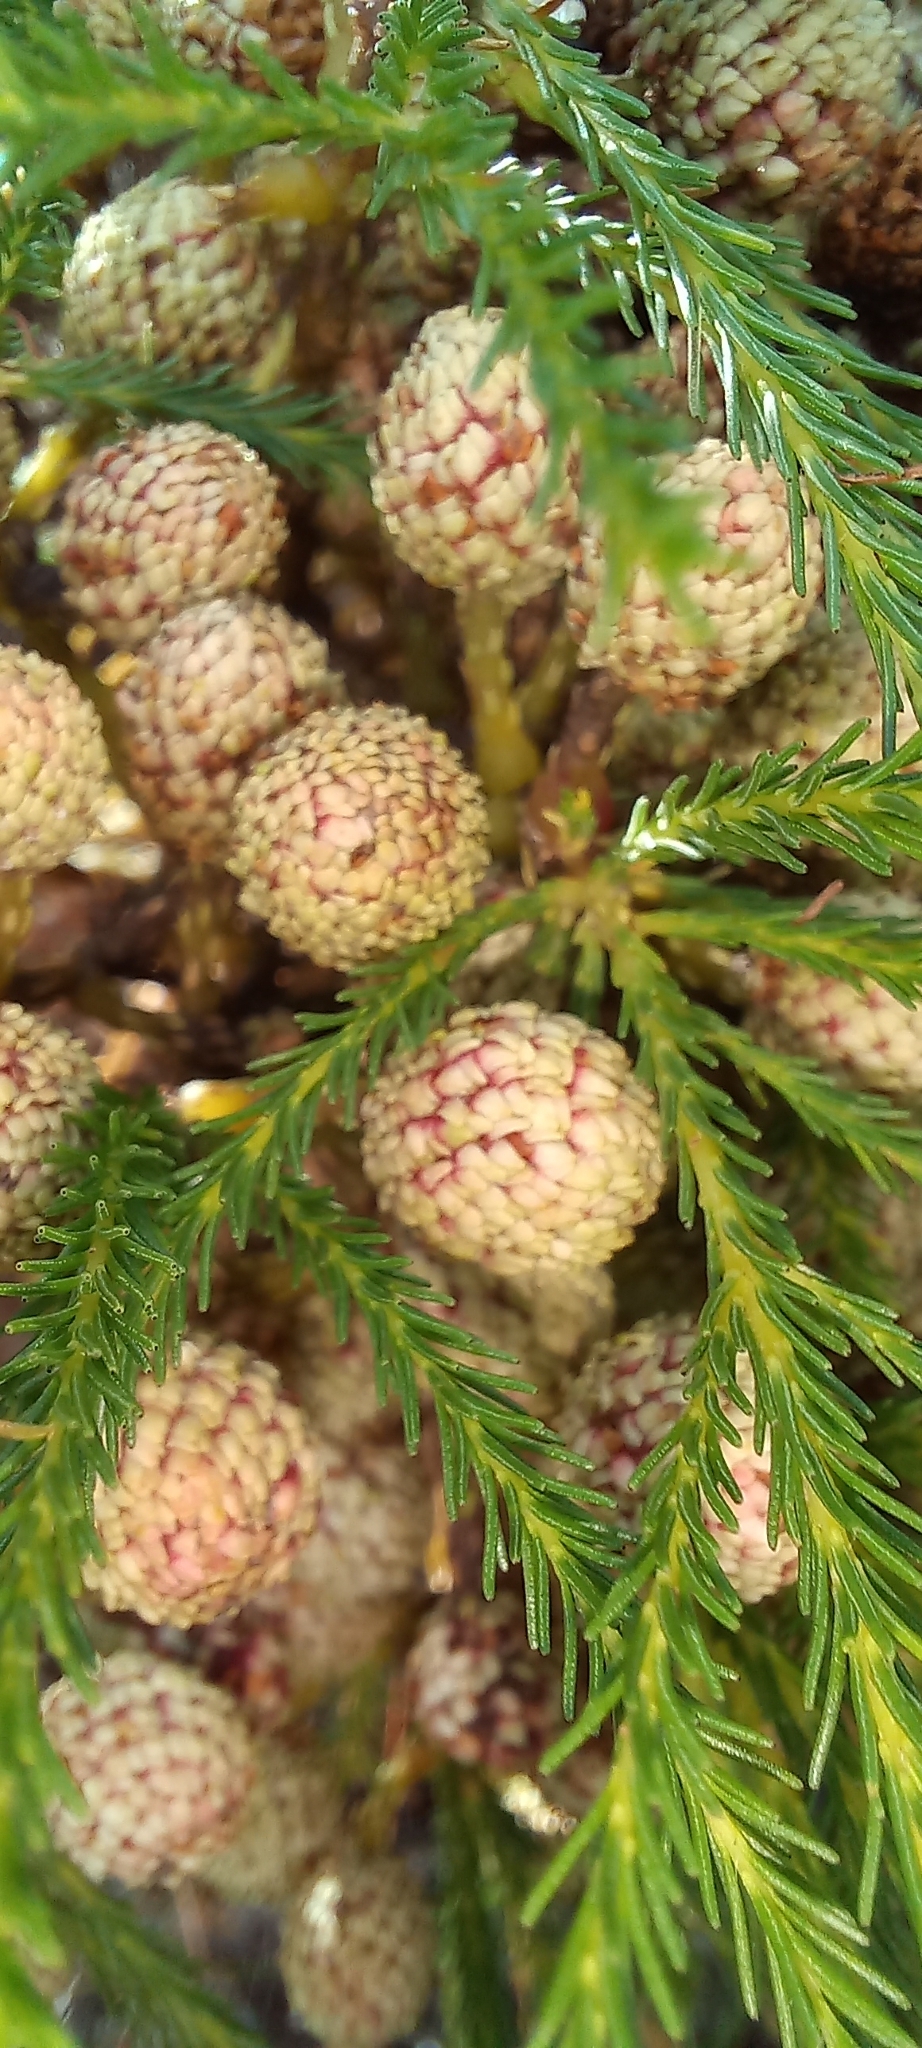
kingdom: Plantae
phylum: Tracheophyta
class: Magnoliopsida
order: Bruniales
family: Bruniaceae
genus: Berzelia
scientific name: Berzelia lanuginosa
